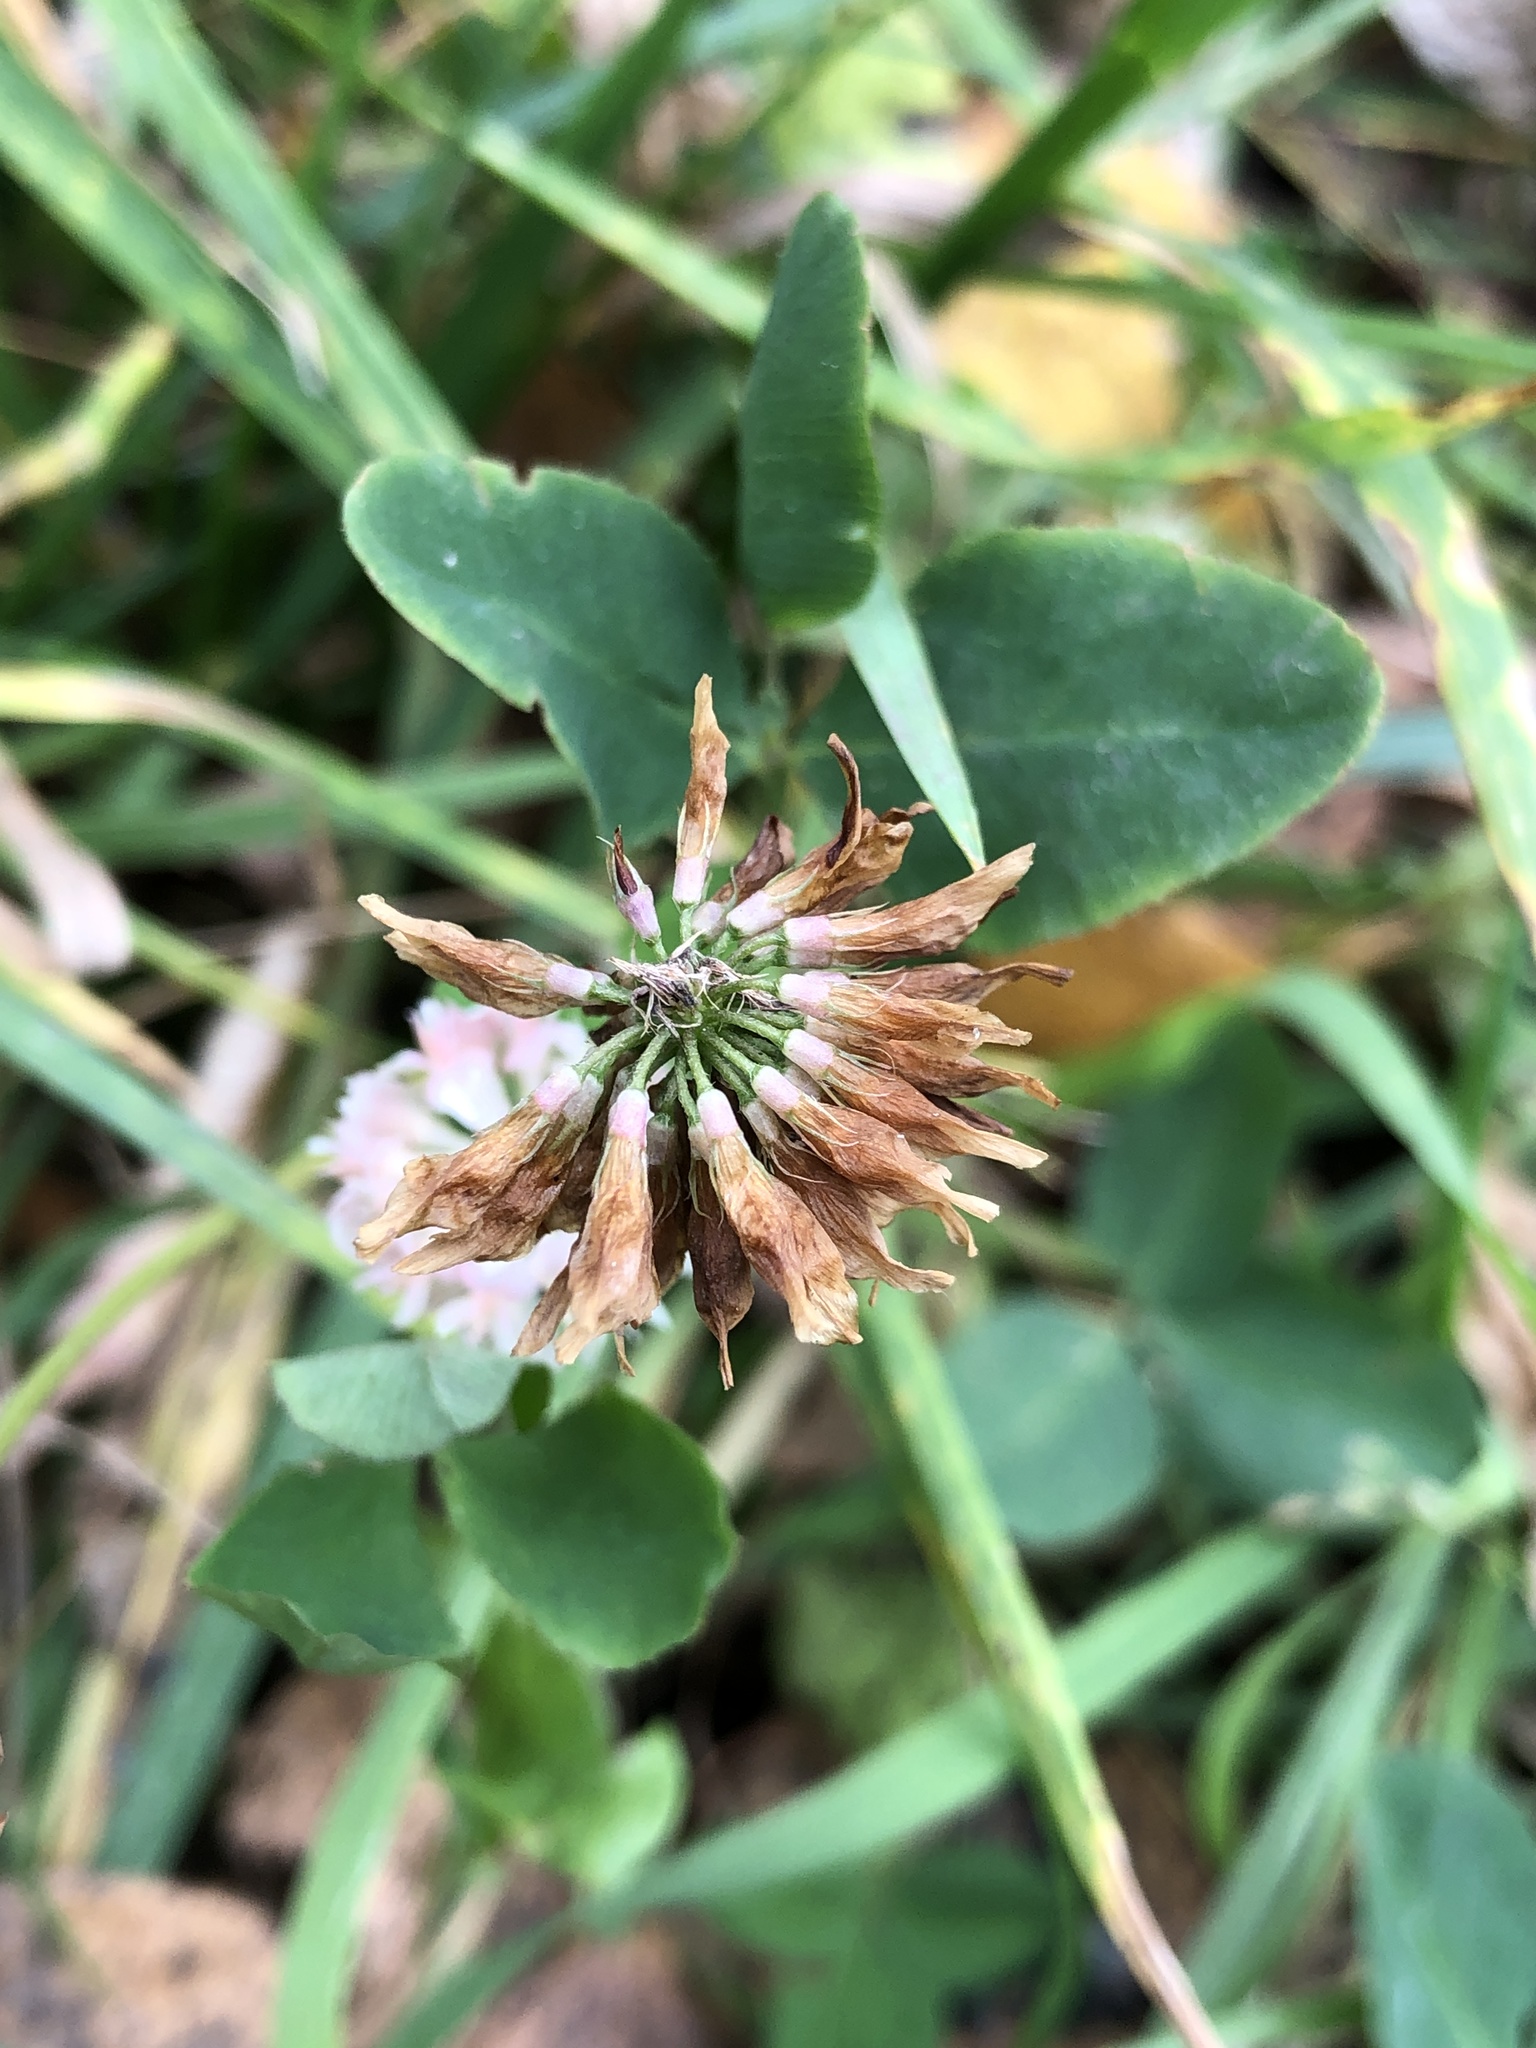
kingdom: Plantae
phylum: Tracheophyta
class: Magnoliopsida
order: Fabales
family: Fabaceae
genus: Trifolium
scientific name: Trifolium hybridum
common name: Alsike clover
